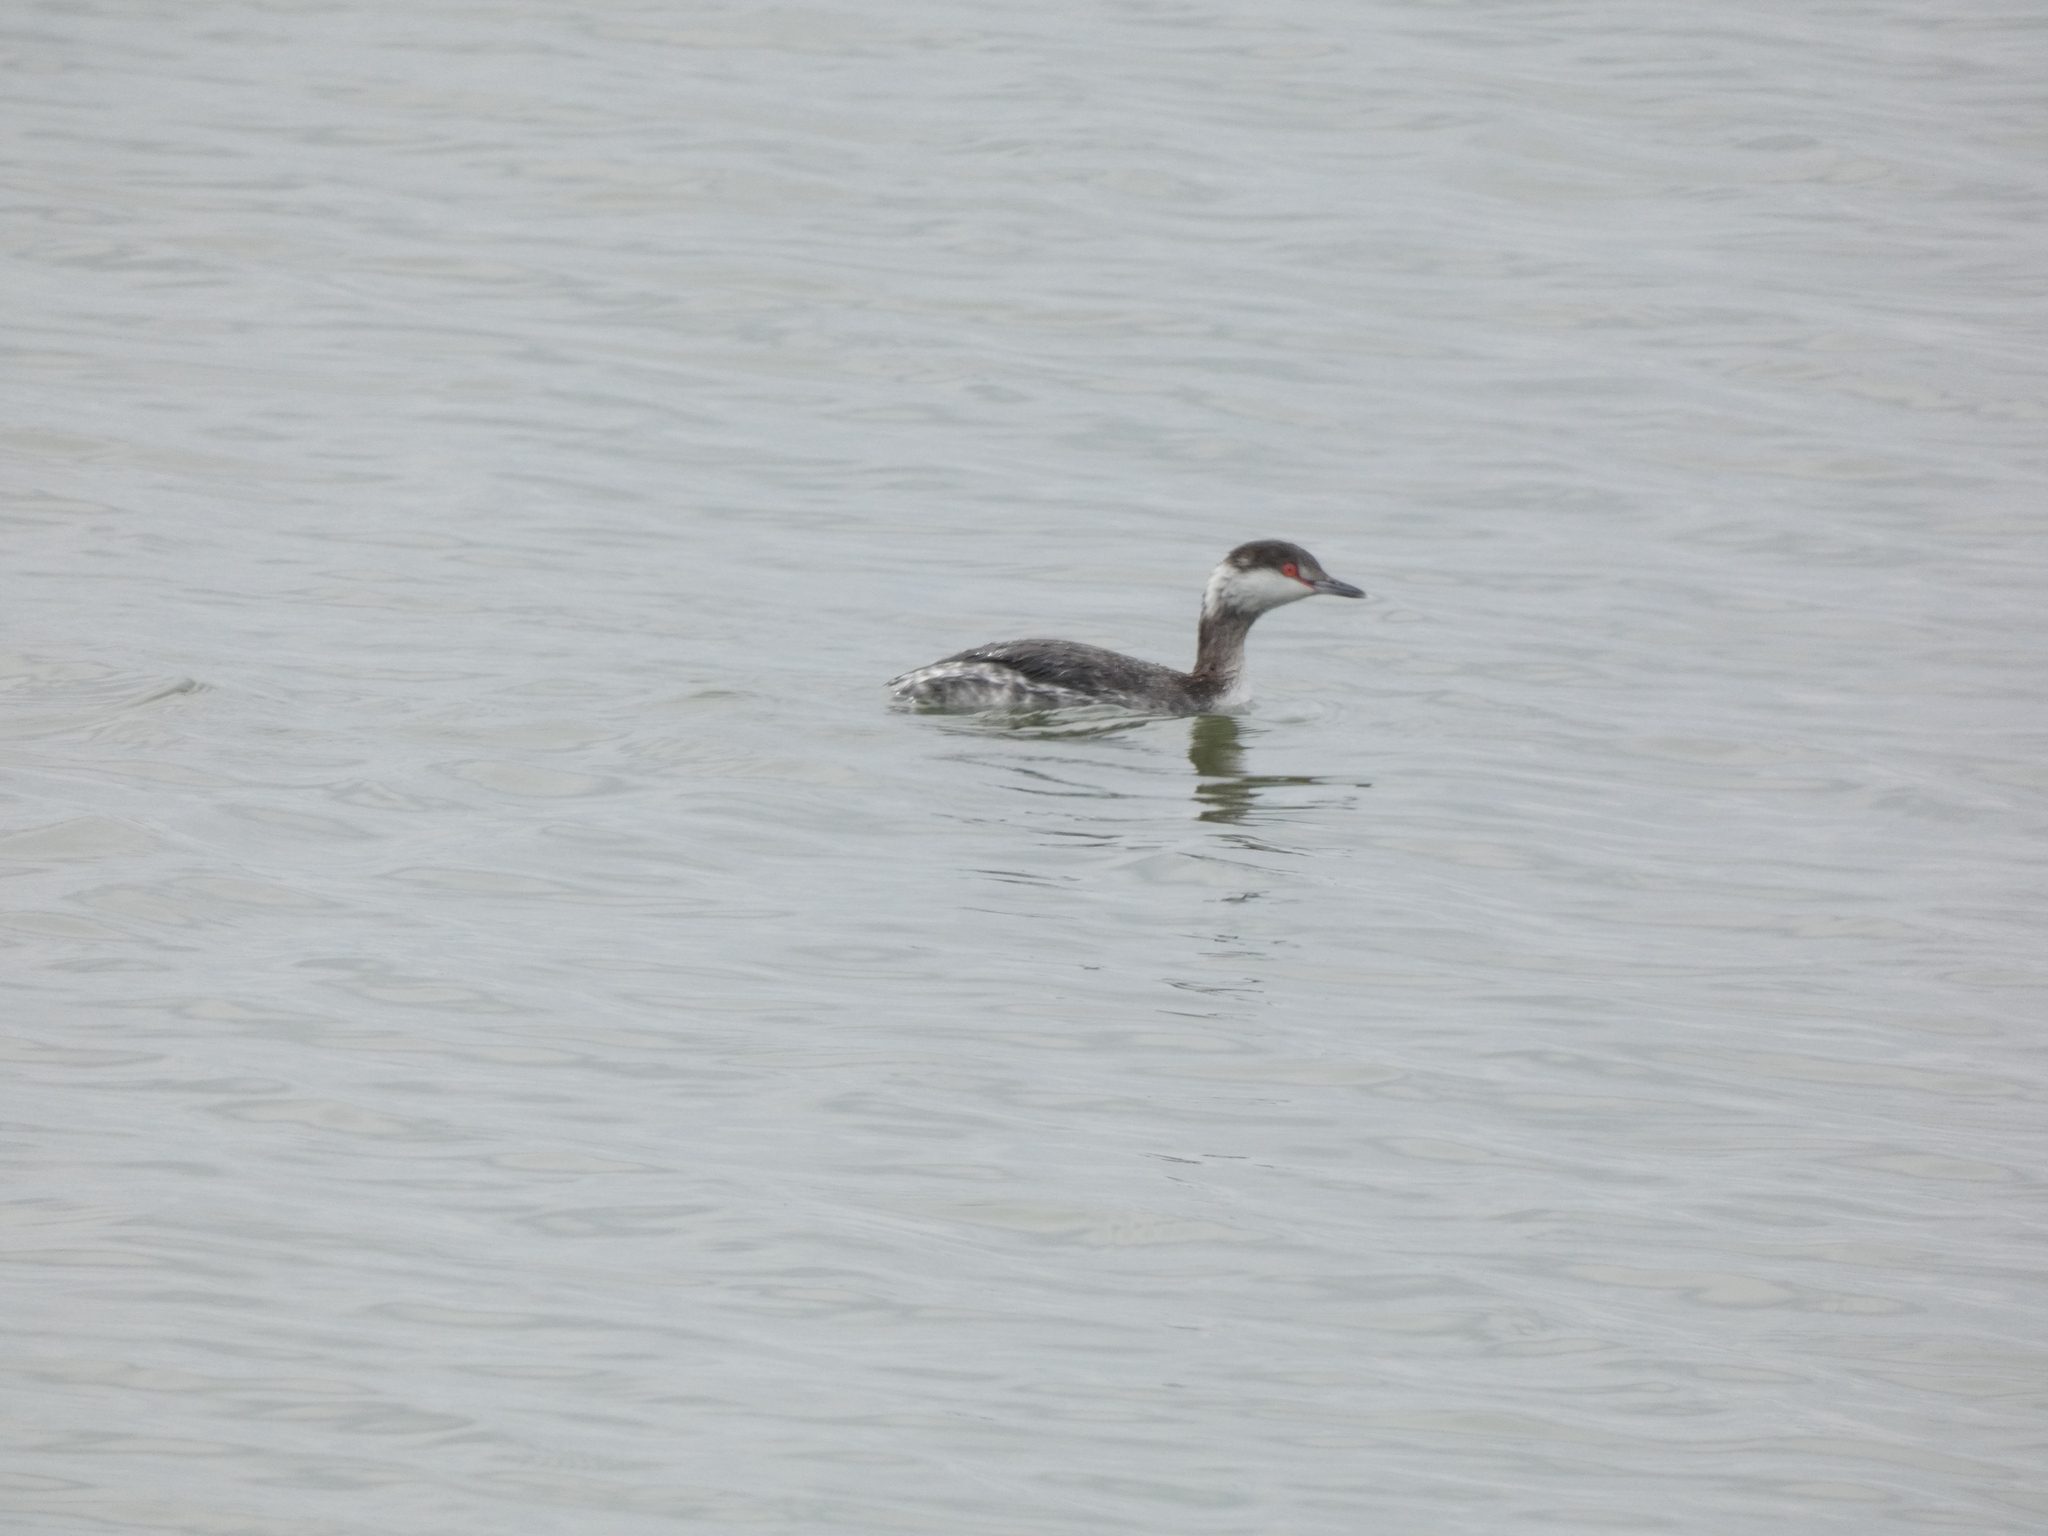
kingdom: Animalia
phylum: Chordata
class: Aves
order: Podicipediformes
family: Podicipedidae
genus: Podiceps
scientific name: Podiceps auritus
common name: Horned grebe
